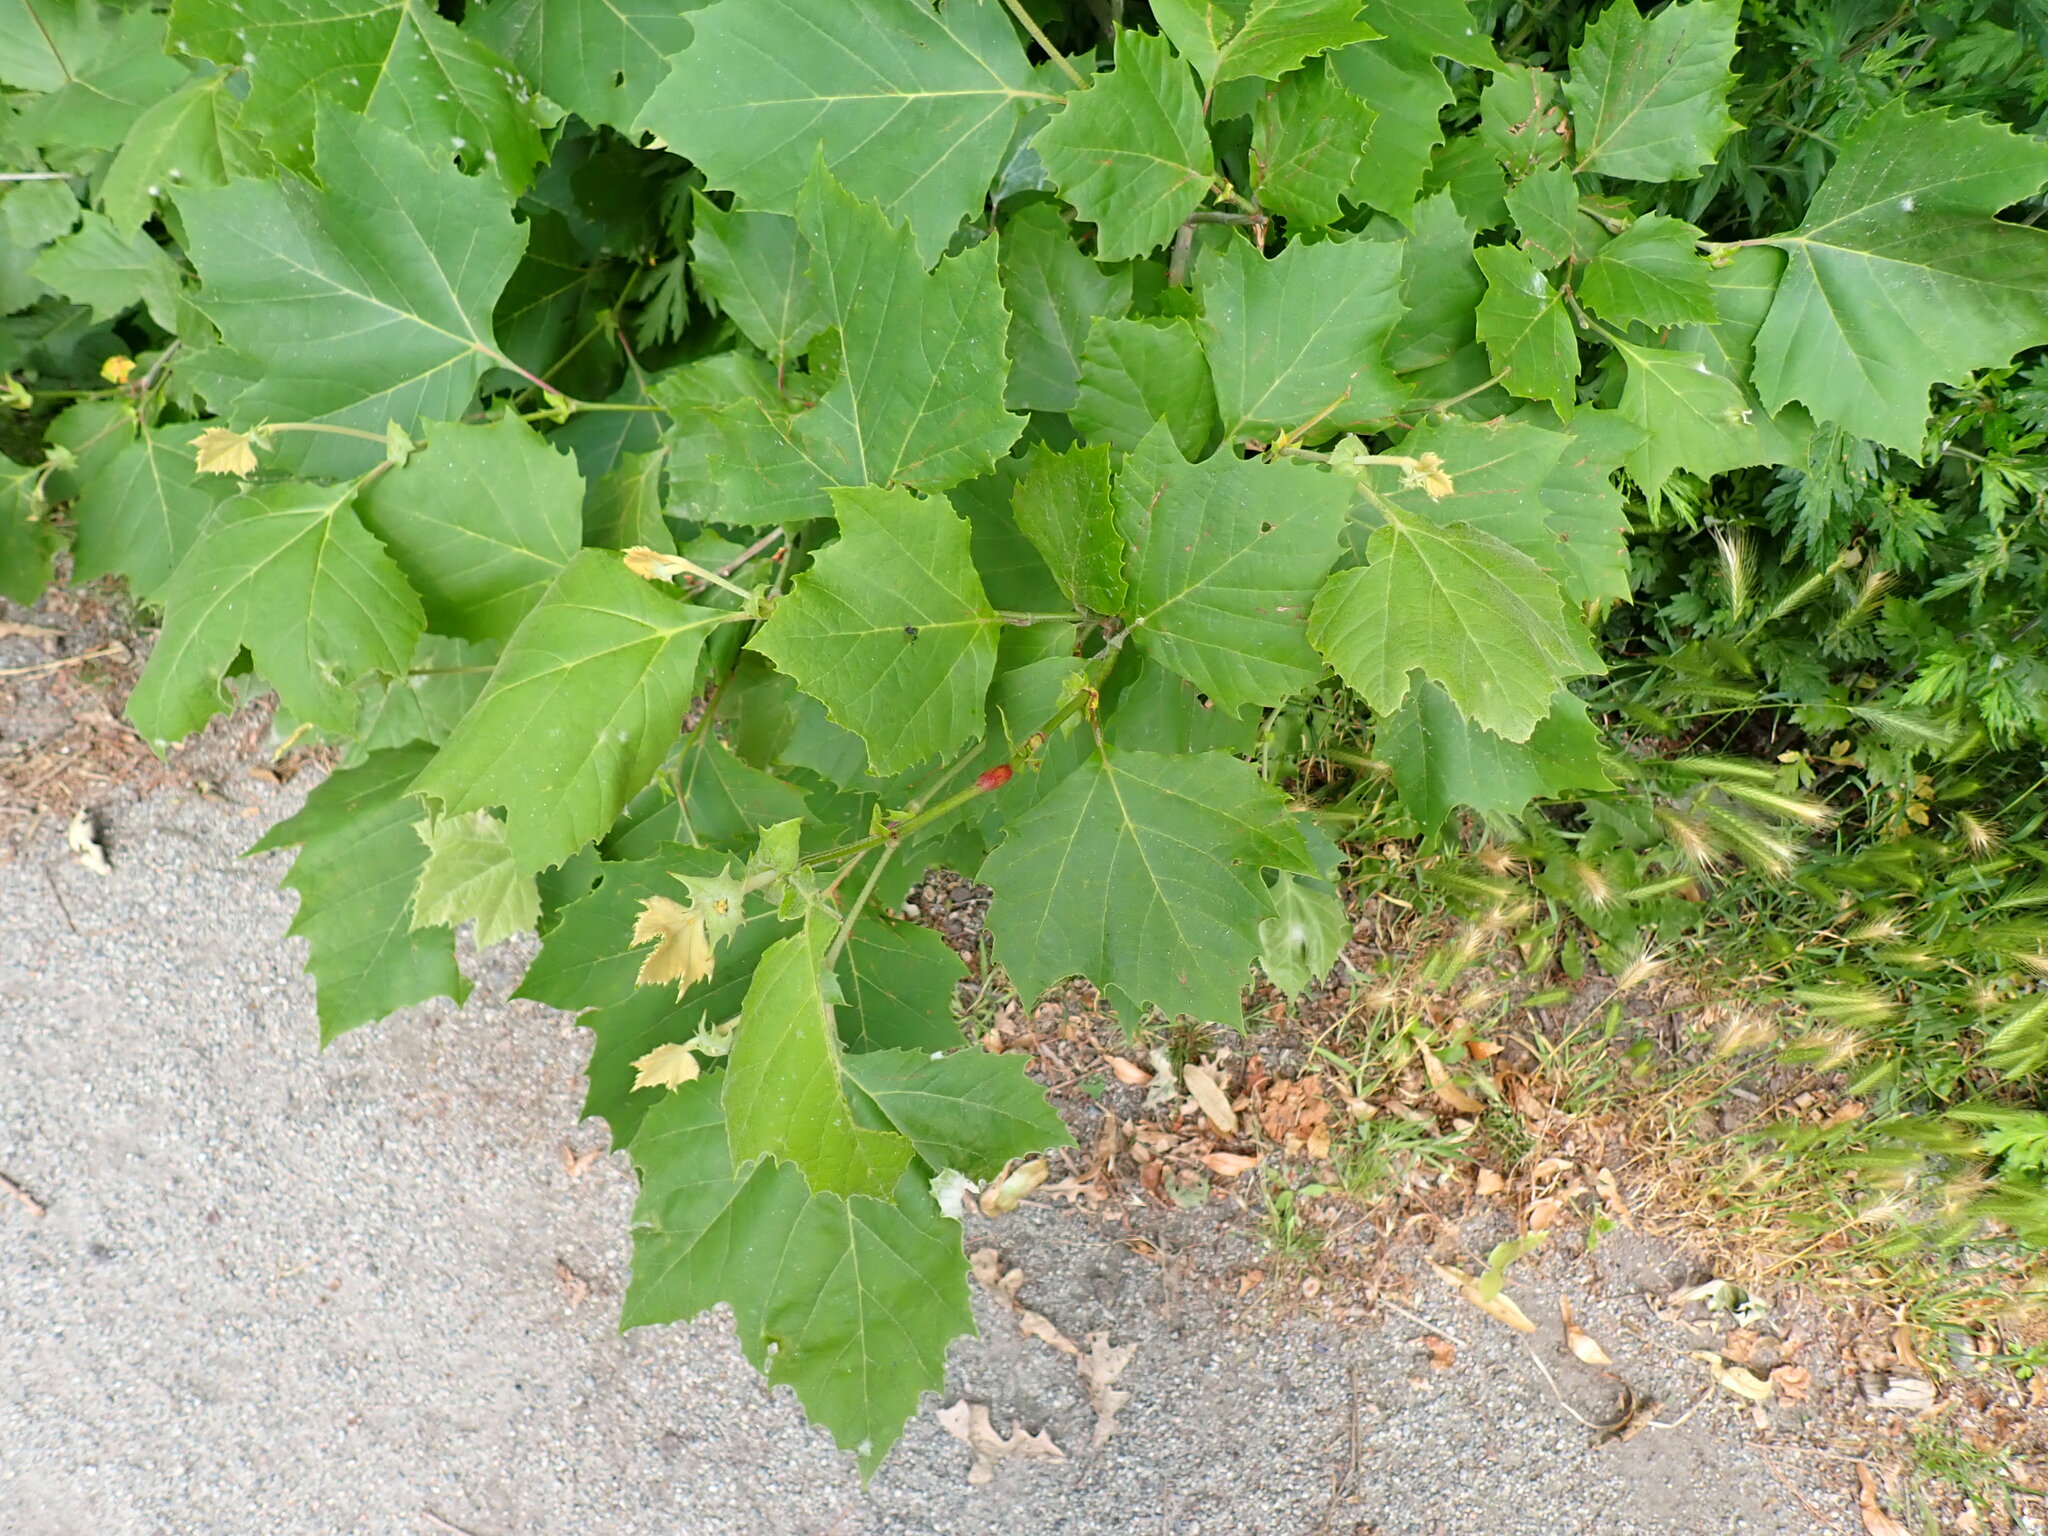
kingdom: Plantae
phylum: Tracheophyta
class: Magnoliopsida
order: Proteales
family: Platanaceae
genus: Platanus
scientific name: Platanus occidentalis
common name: American sycamore
